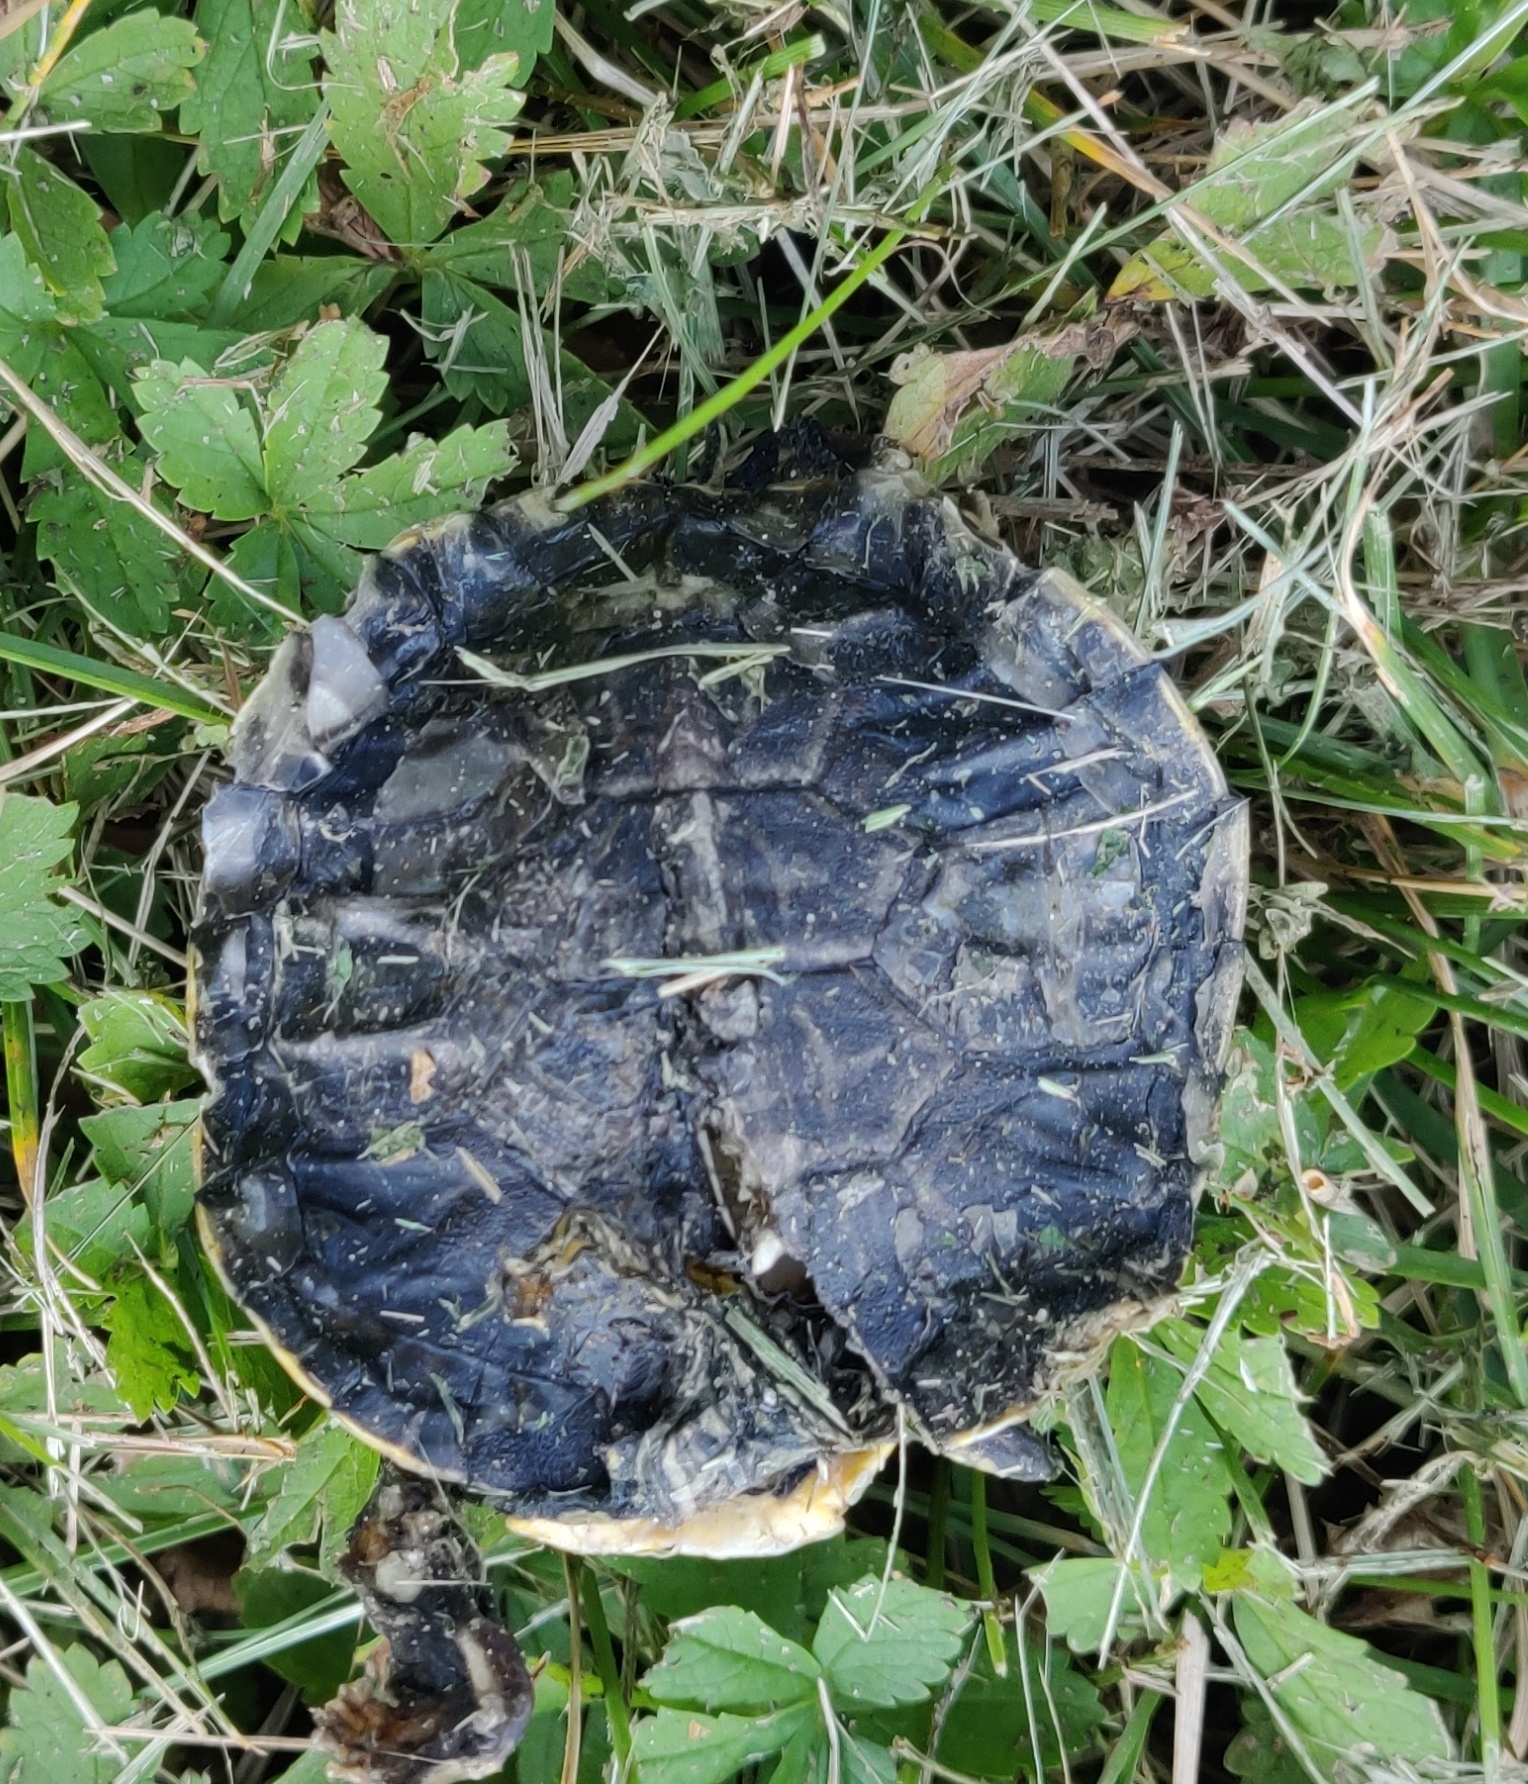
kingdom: Animalia
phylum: Chordata
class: Testudines
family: Emydidae
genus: Trachemys
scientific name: Trachemys scripta
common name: Slider
